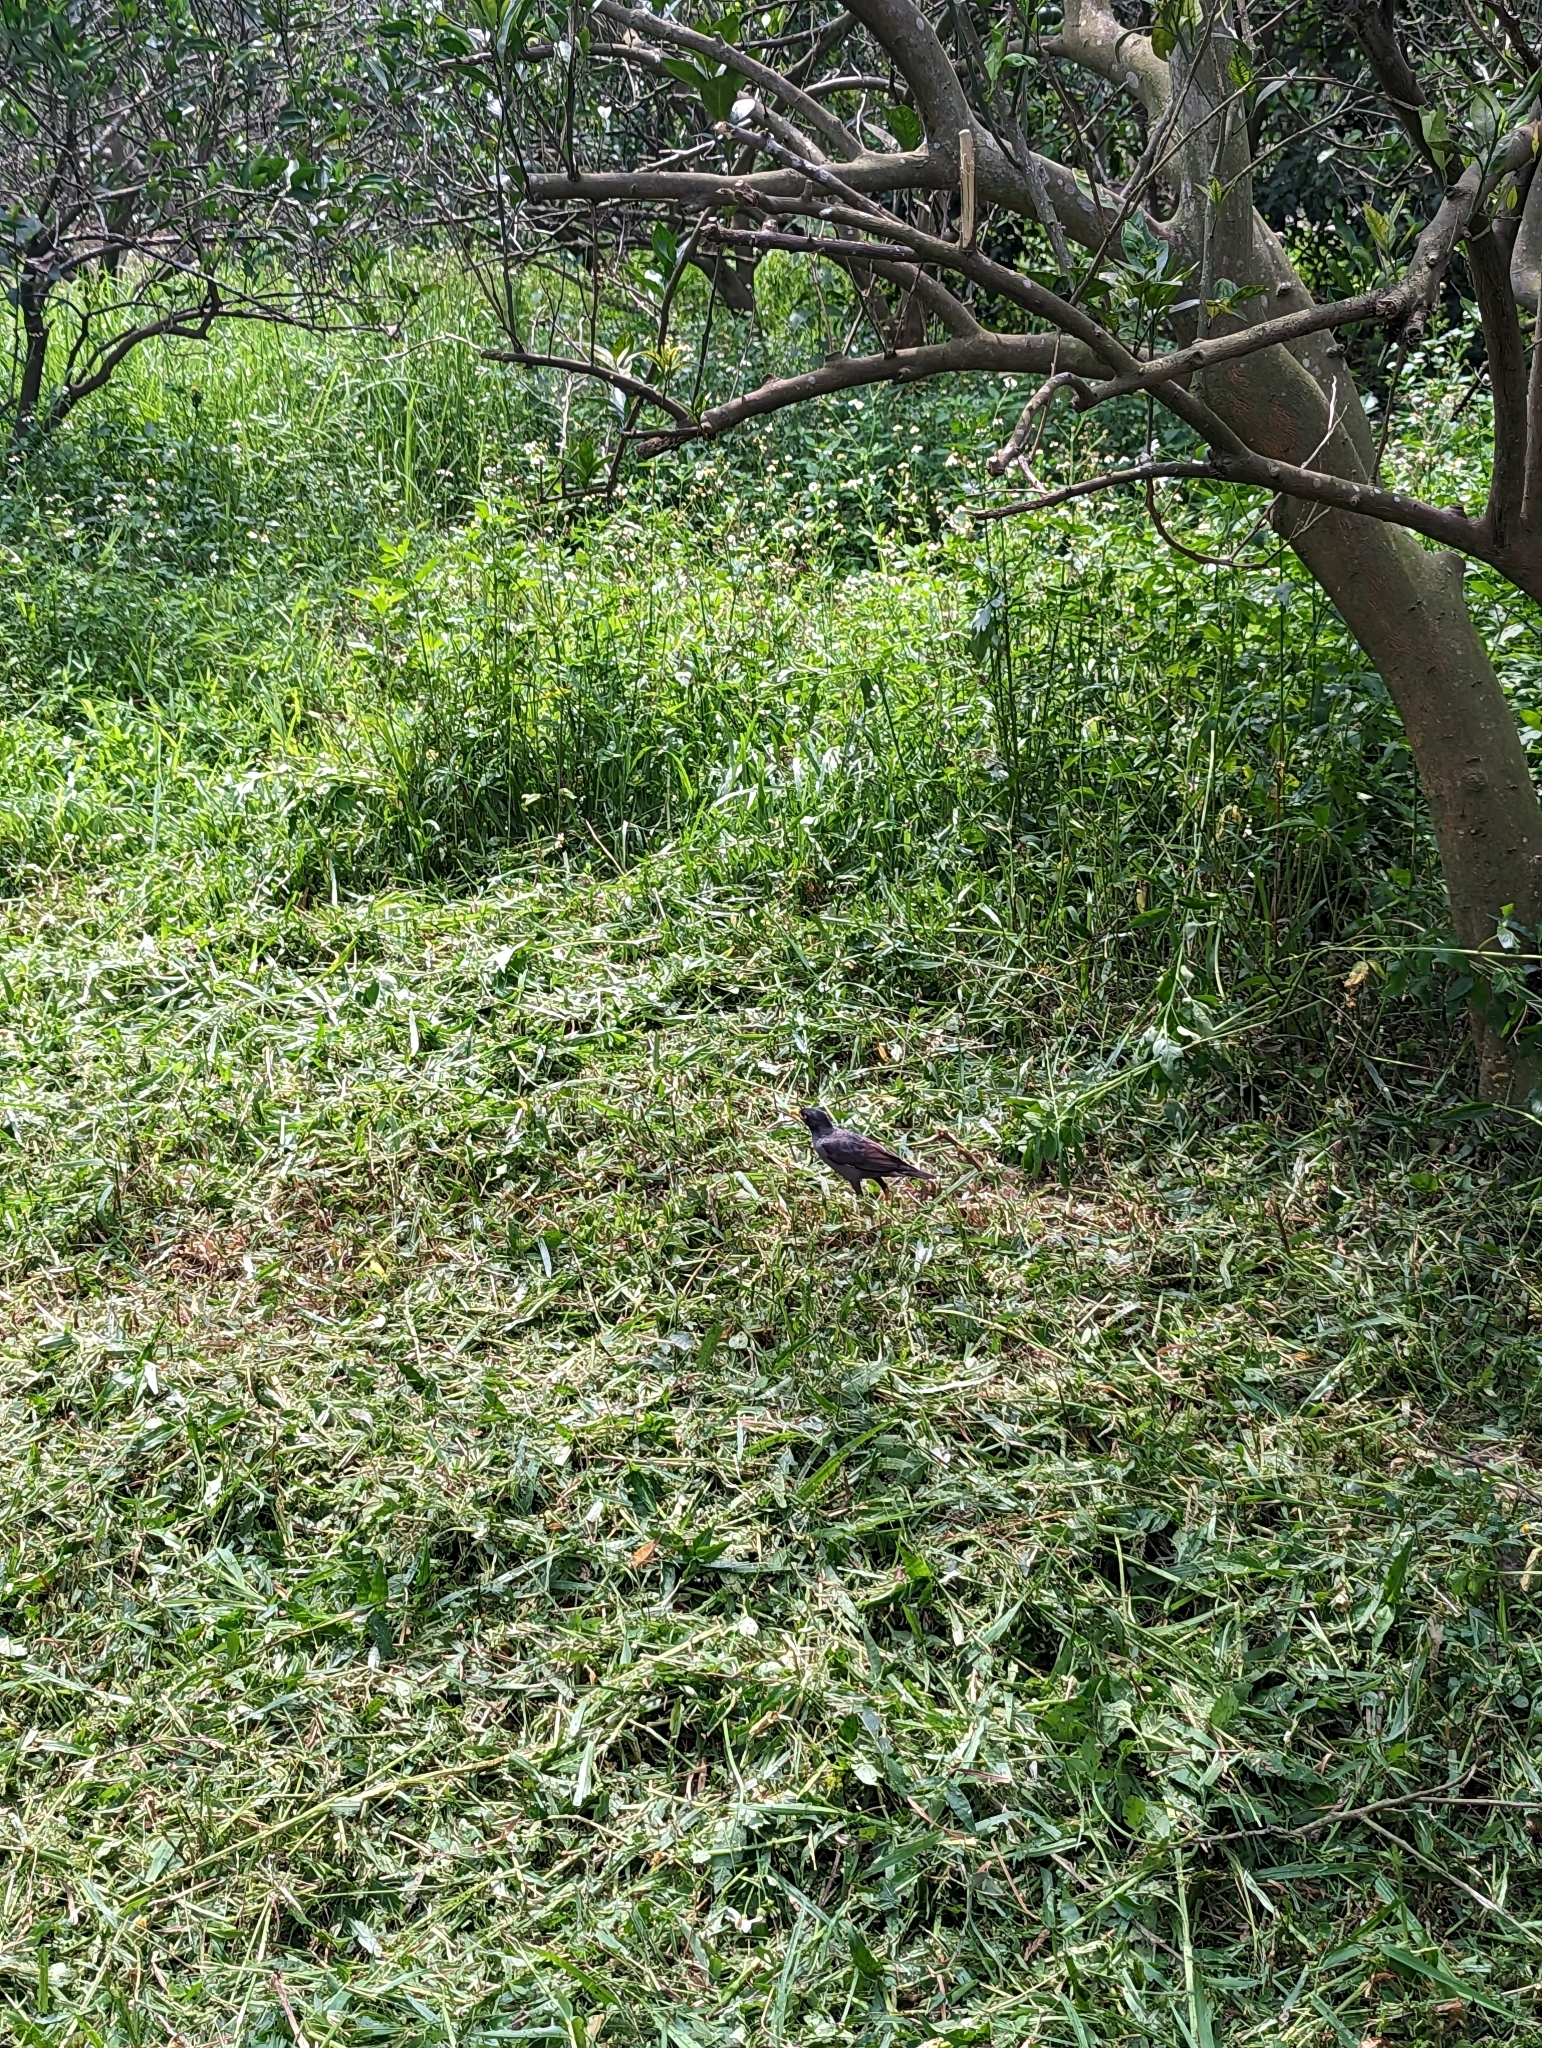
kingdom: Animalia
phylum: Chordata
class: Aves
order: Passeriformes
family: Sturnidae
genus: Acridotheres
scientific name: Acridotheres javanicus
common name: Javan myna
